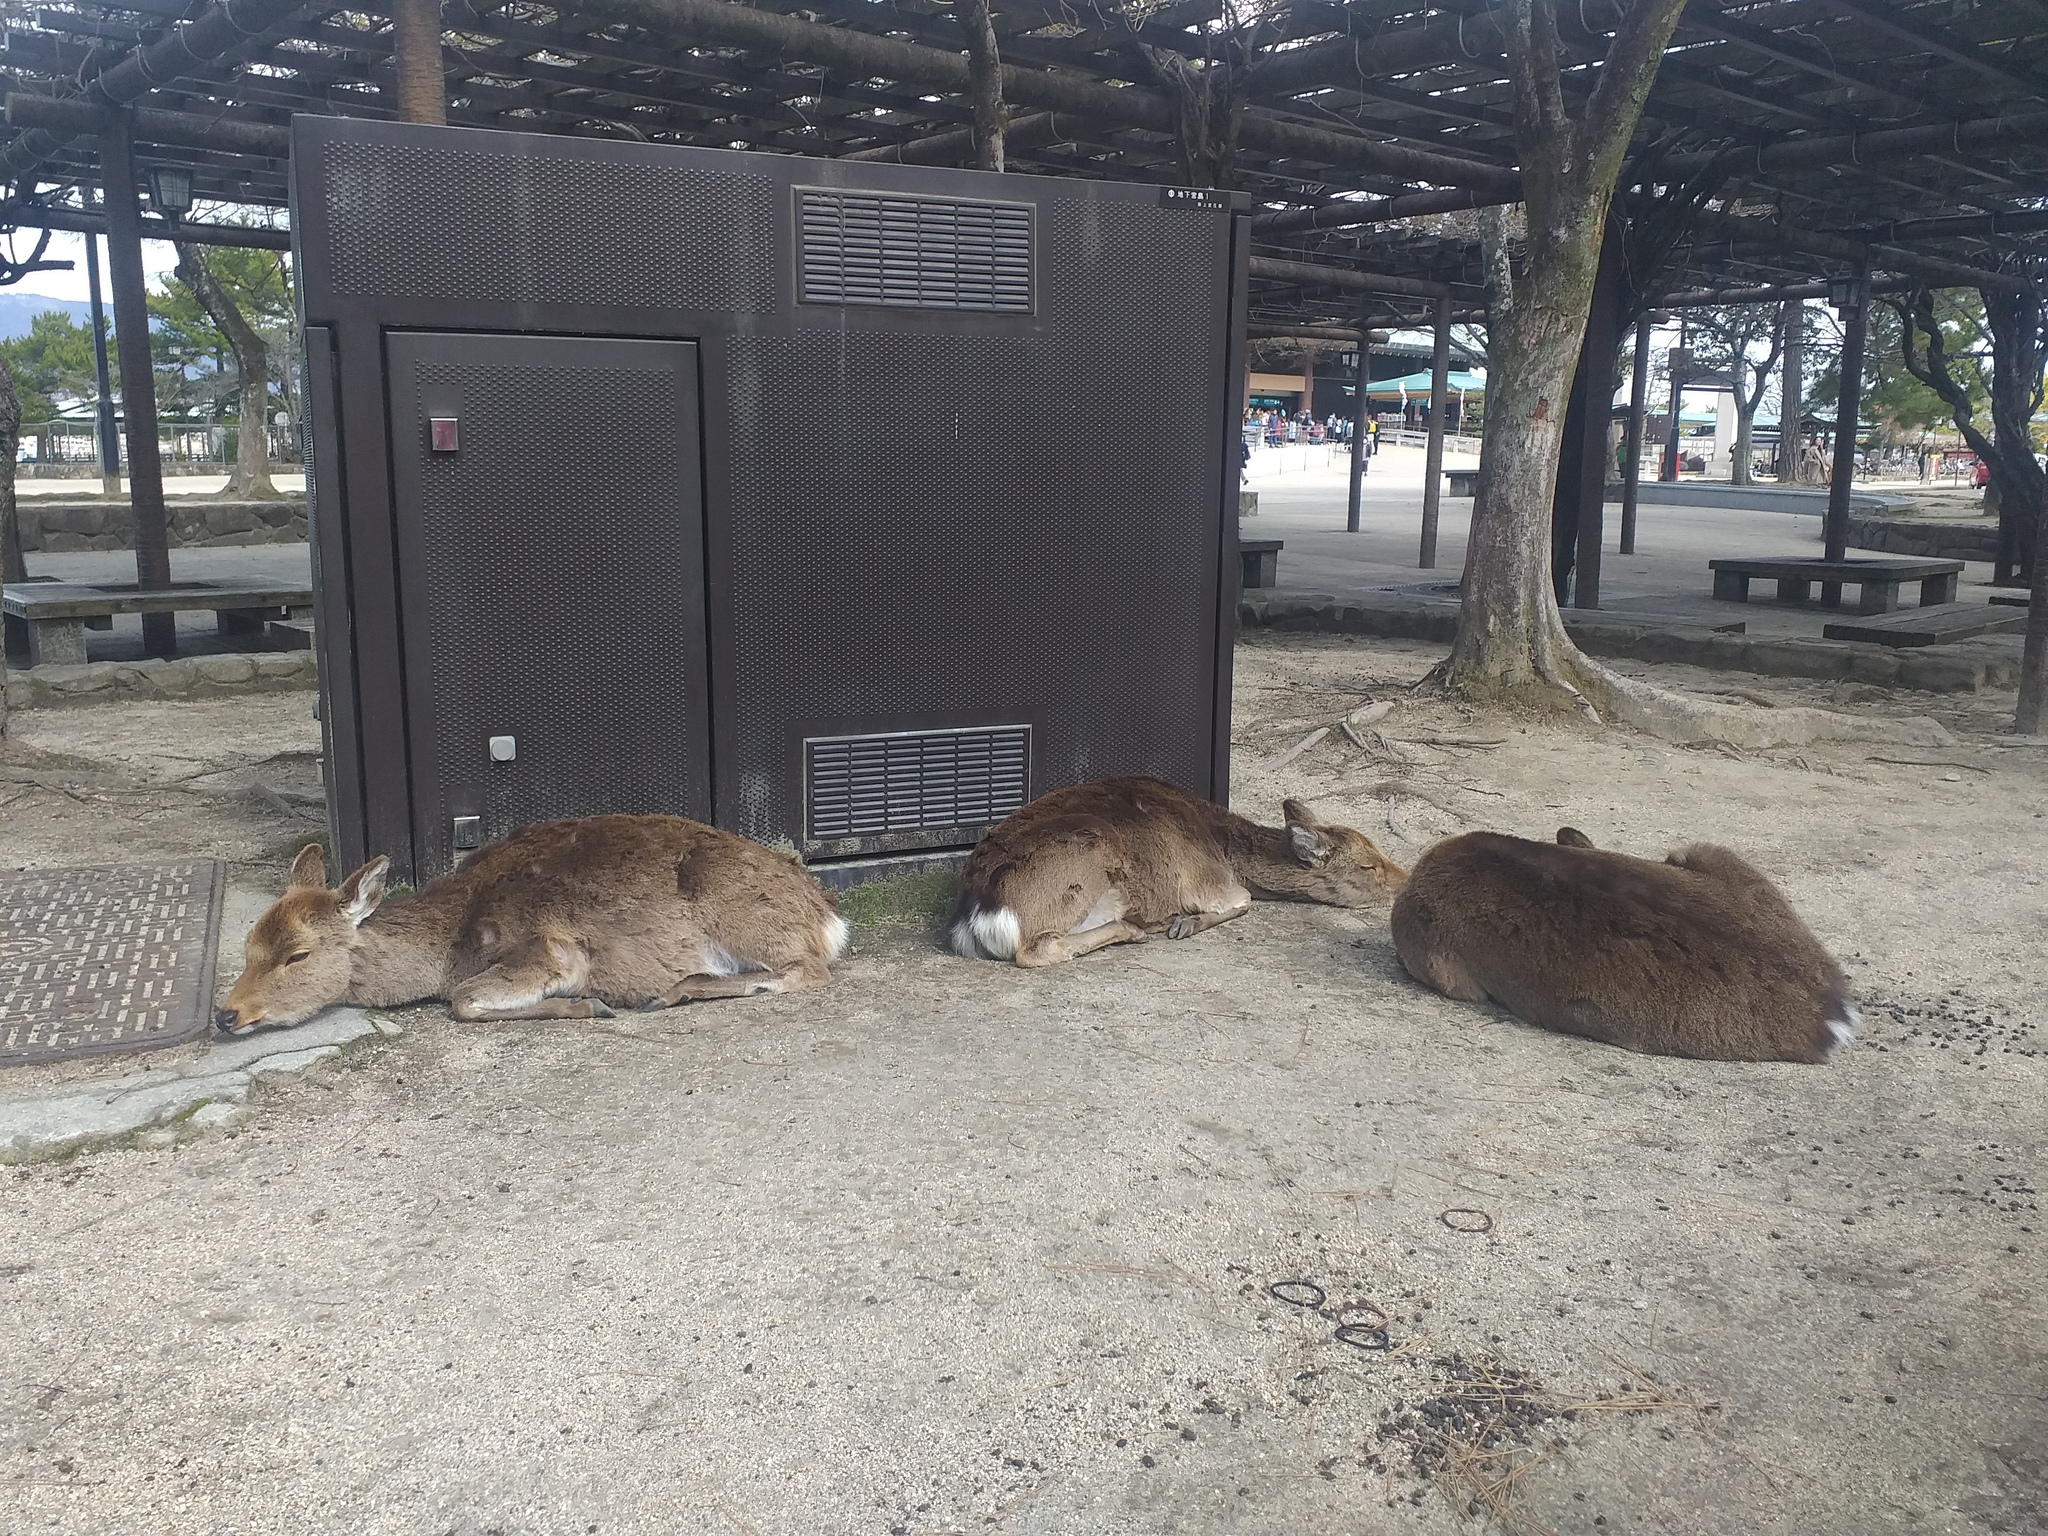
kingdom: Animalia
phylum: Chordata
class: Mammalia
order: Artiodactyla
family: Cervidae
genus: Cervus
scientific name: Cervus nippon
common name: Sika deer
